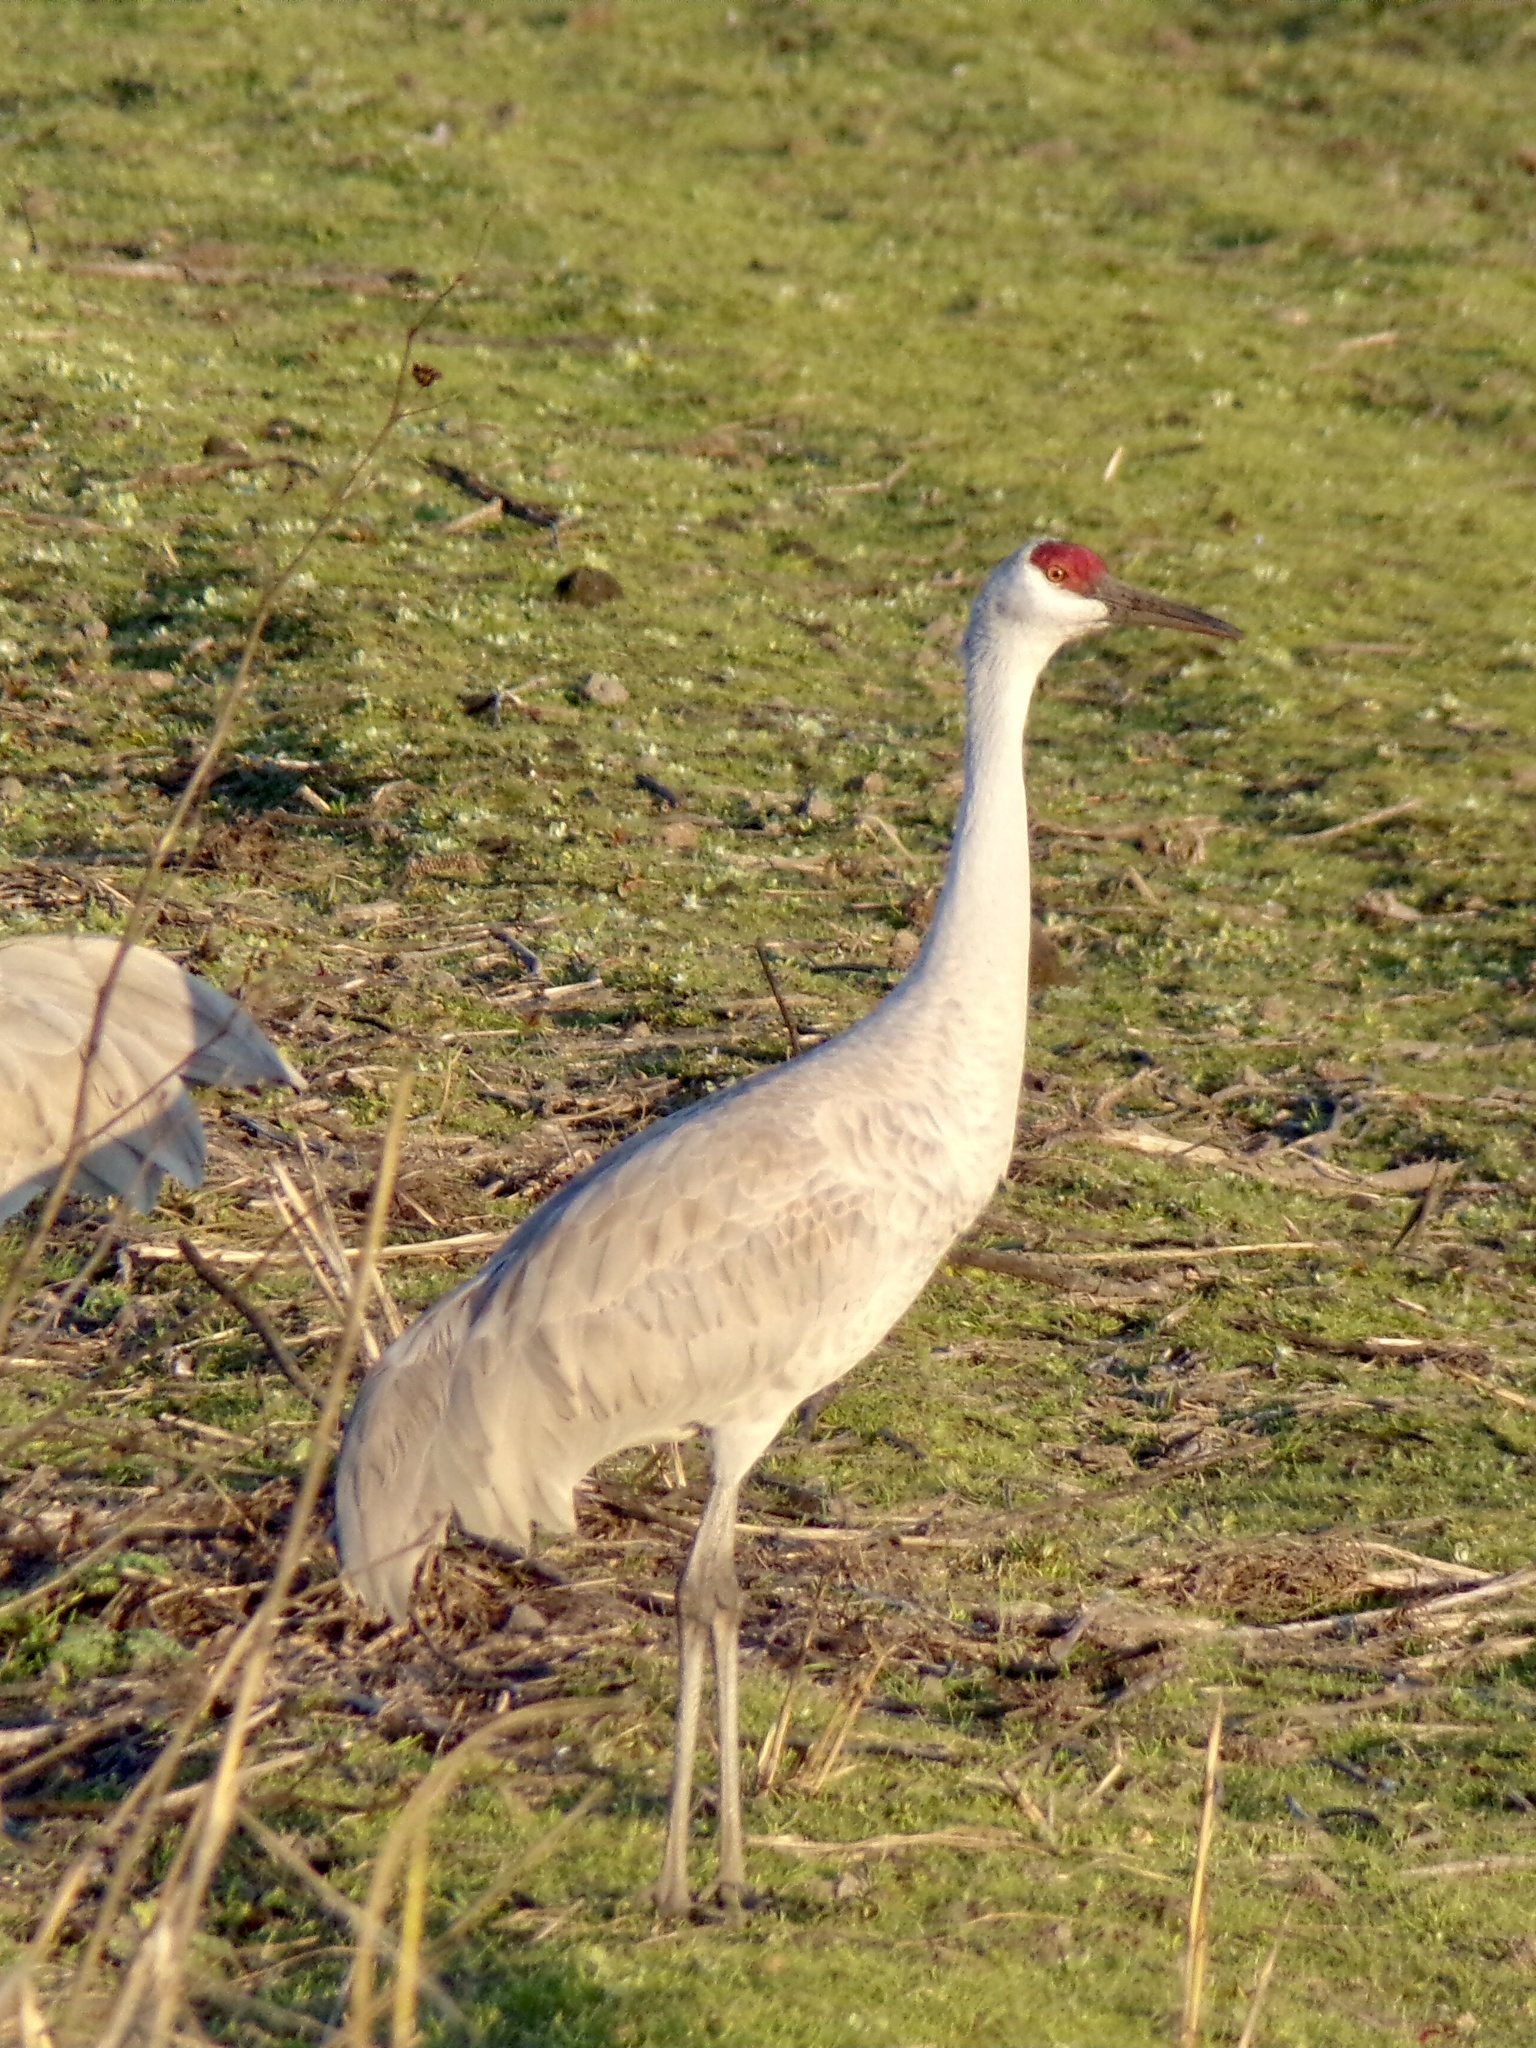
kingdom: Animalia
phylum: Chordata
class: Aves
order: Gruiformes
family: Gruidae
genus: Grus
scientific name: Grus canadensis
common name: Sandhill crane
